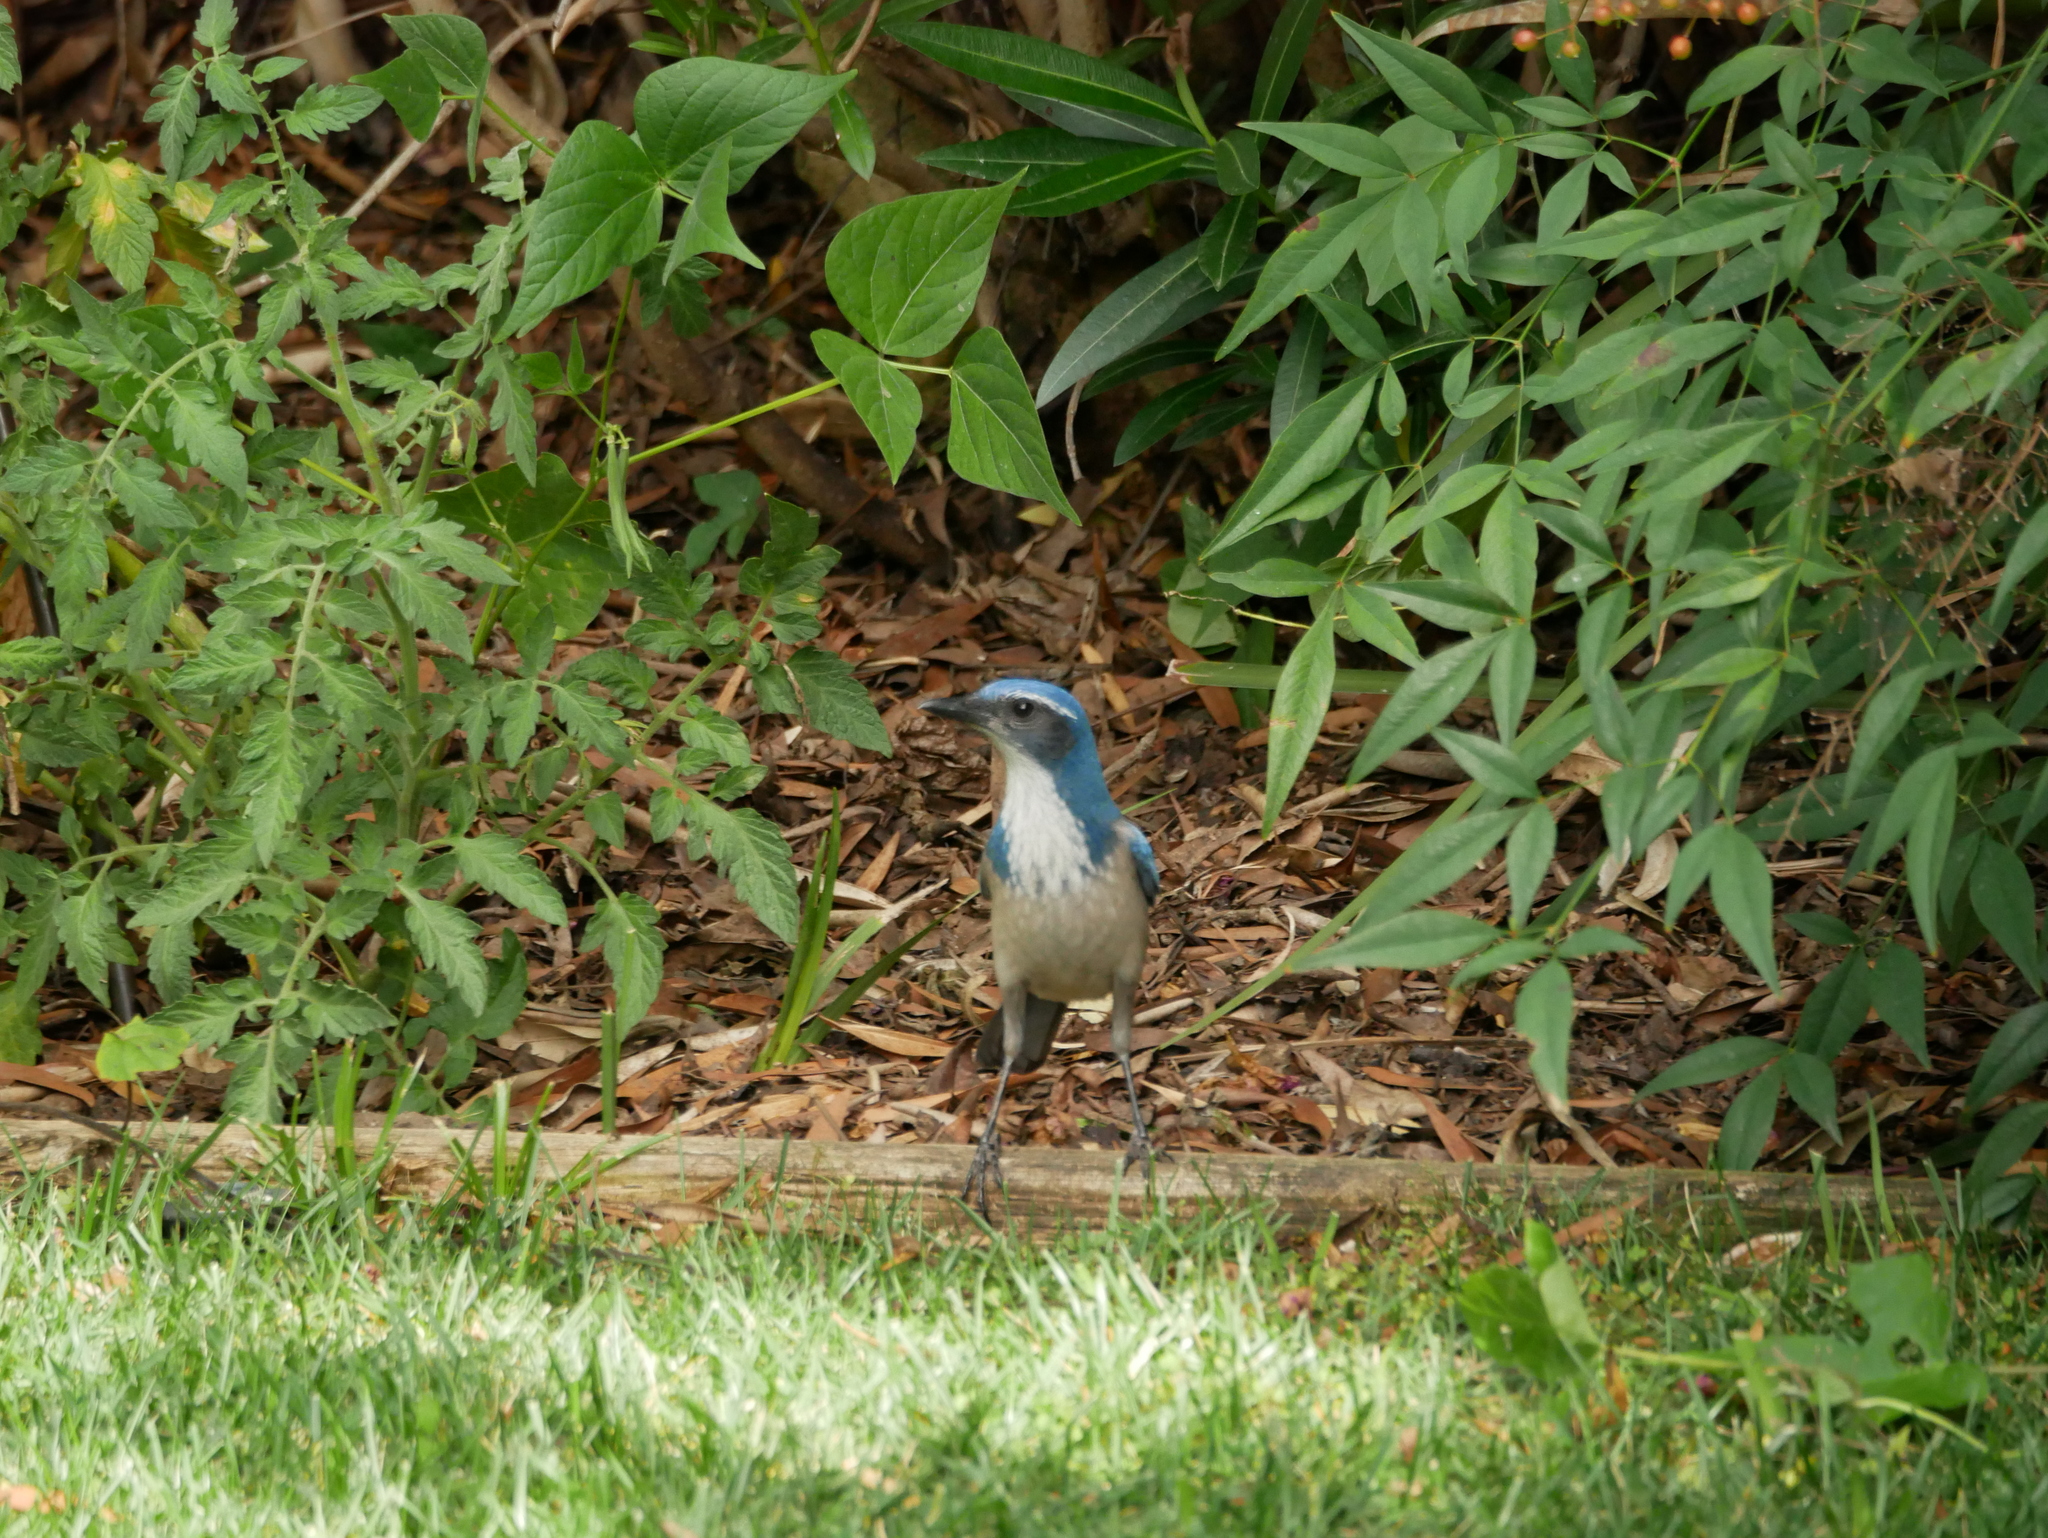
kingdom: Animalia
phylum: Chordata
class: Aves
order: Passeriformes
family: Corvidae
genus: Aphelocoma
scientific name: Aphelocoma californica
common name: California scrub-jay
